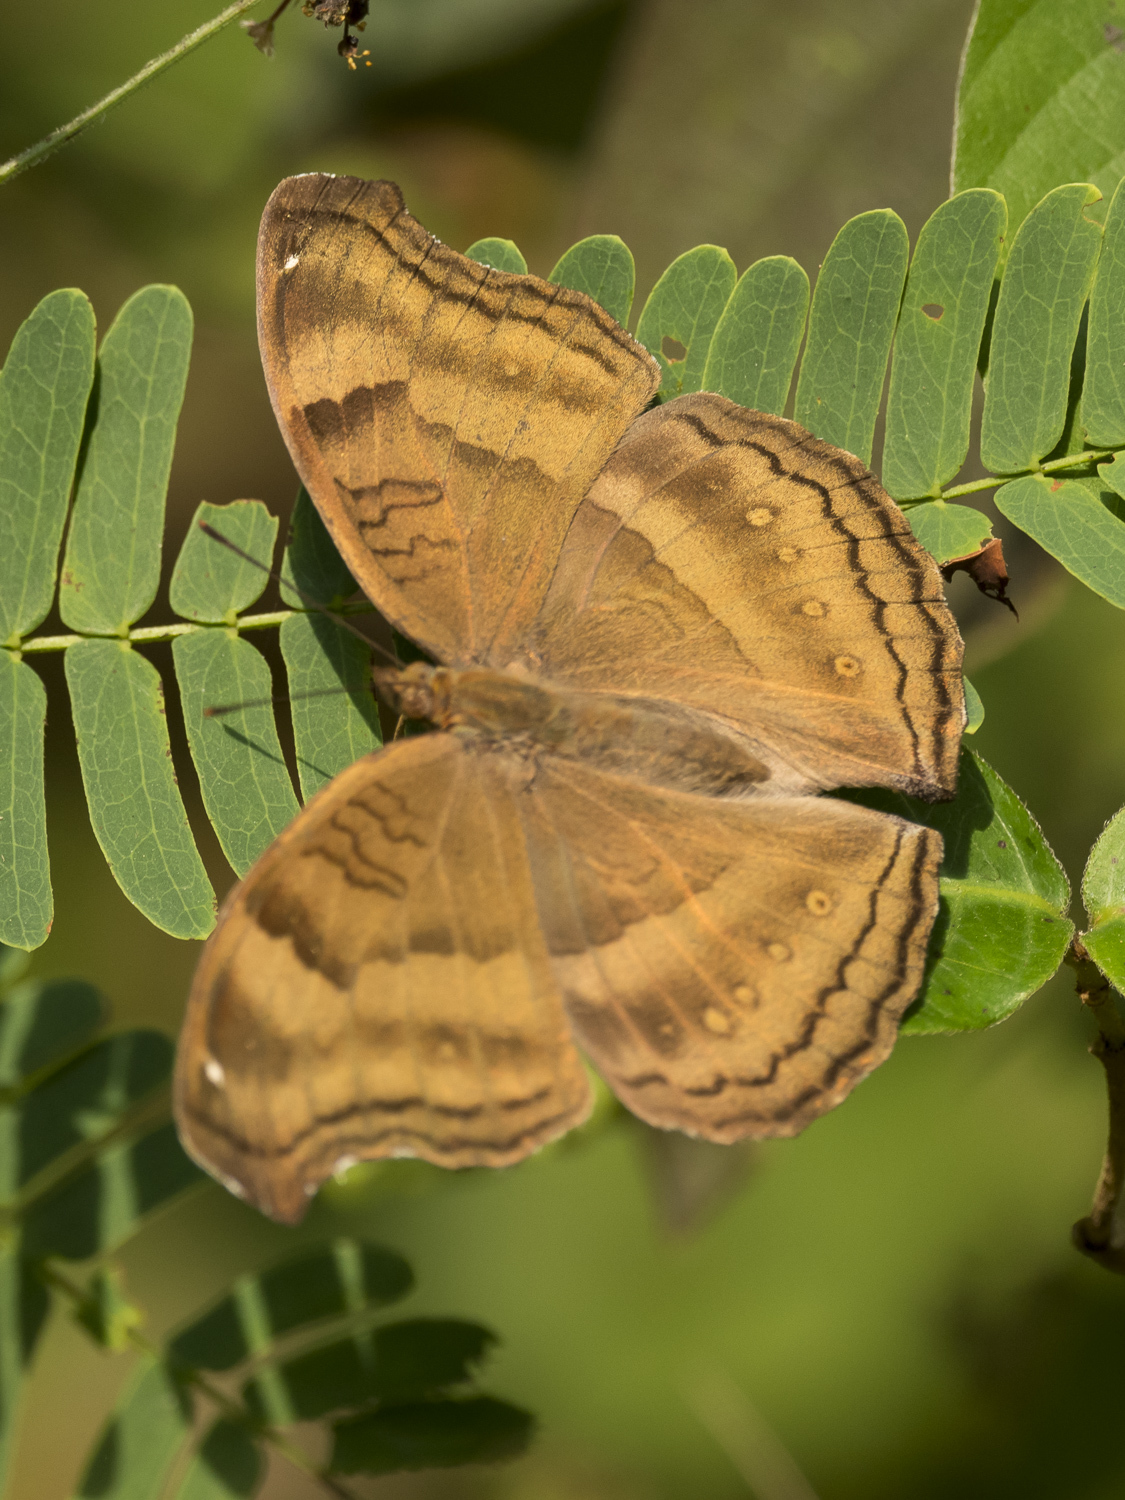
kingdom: Animalia
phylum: Arthropoda
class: Insecta
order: Lepidoptera
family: Nymphalidae
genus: Junonia
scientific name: Junonia iphita
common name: Chocolate pansy
